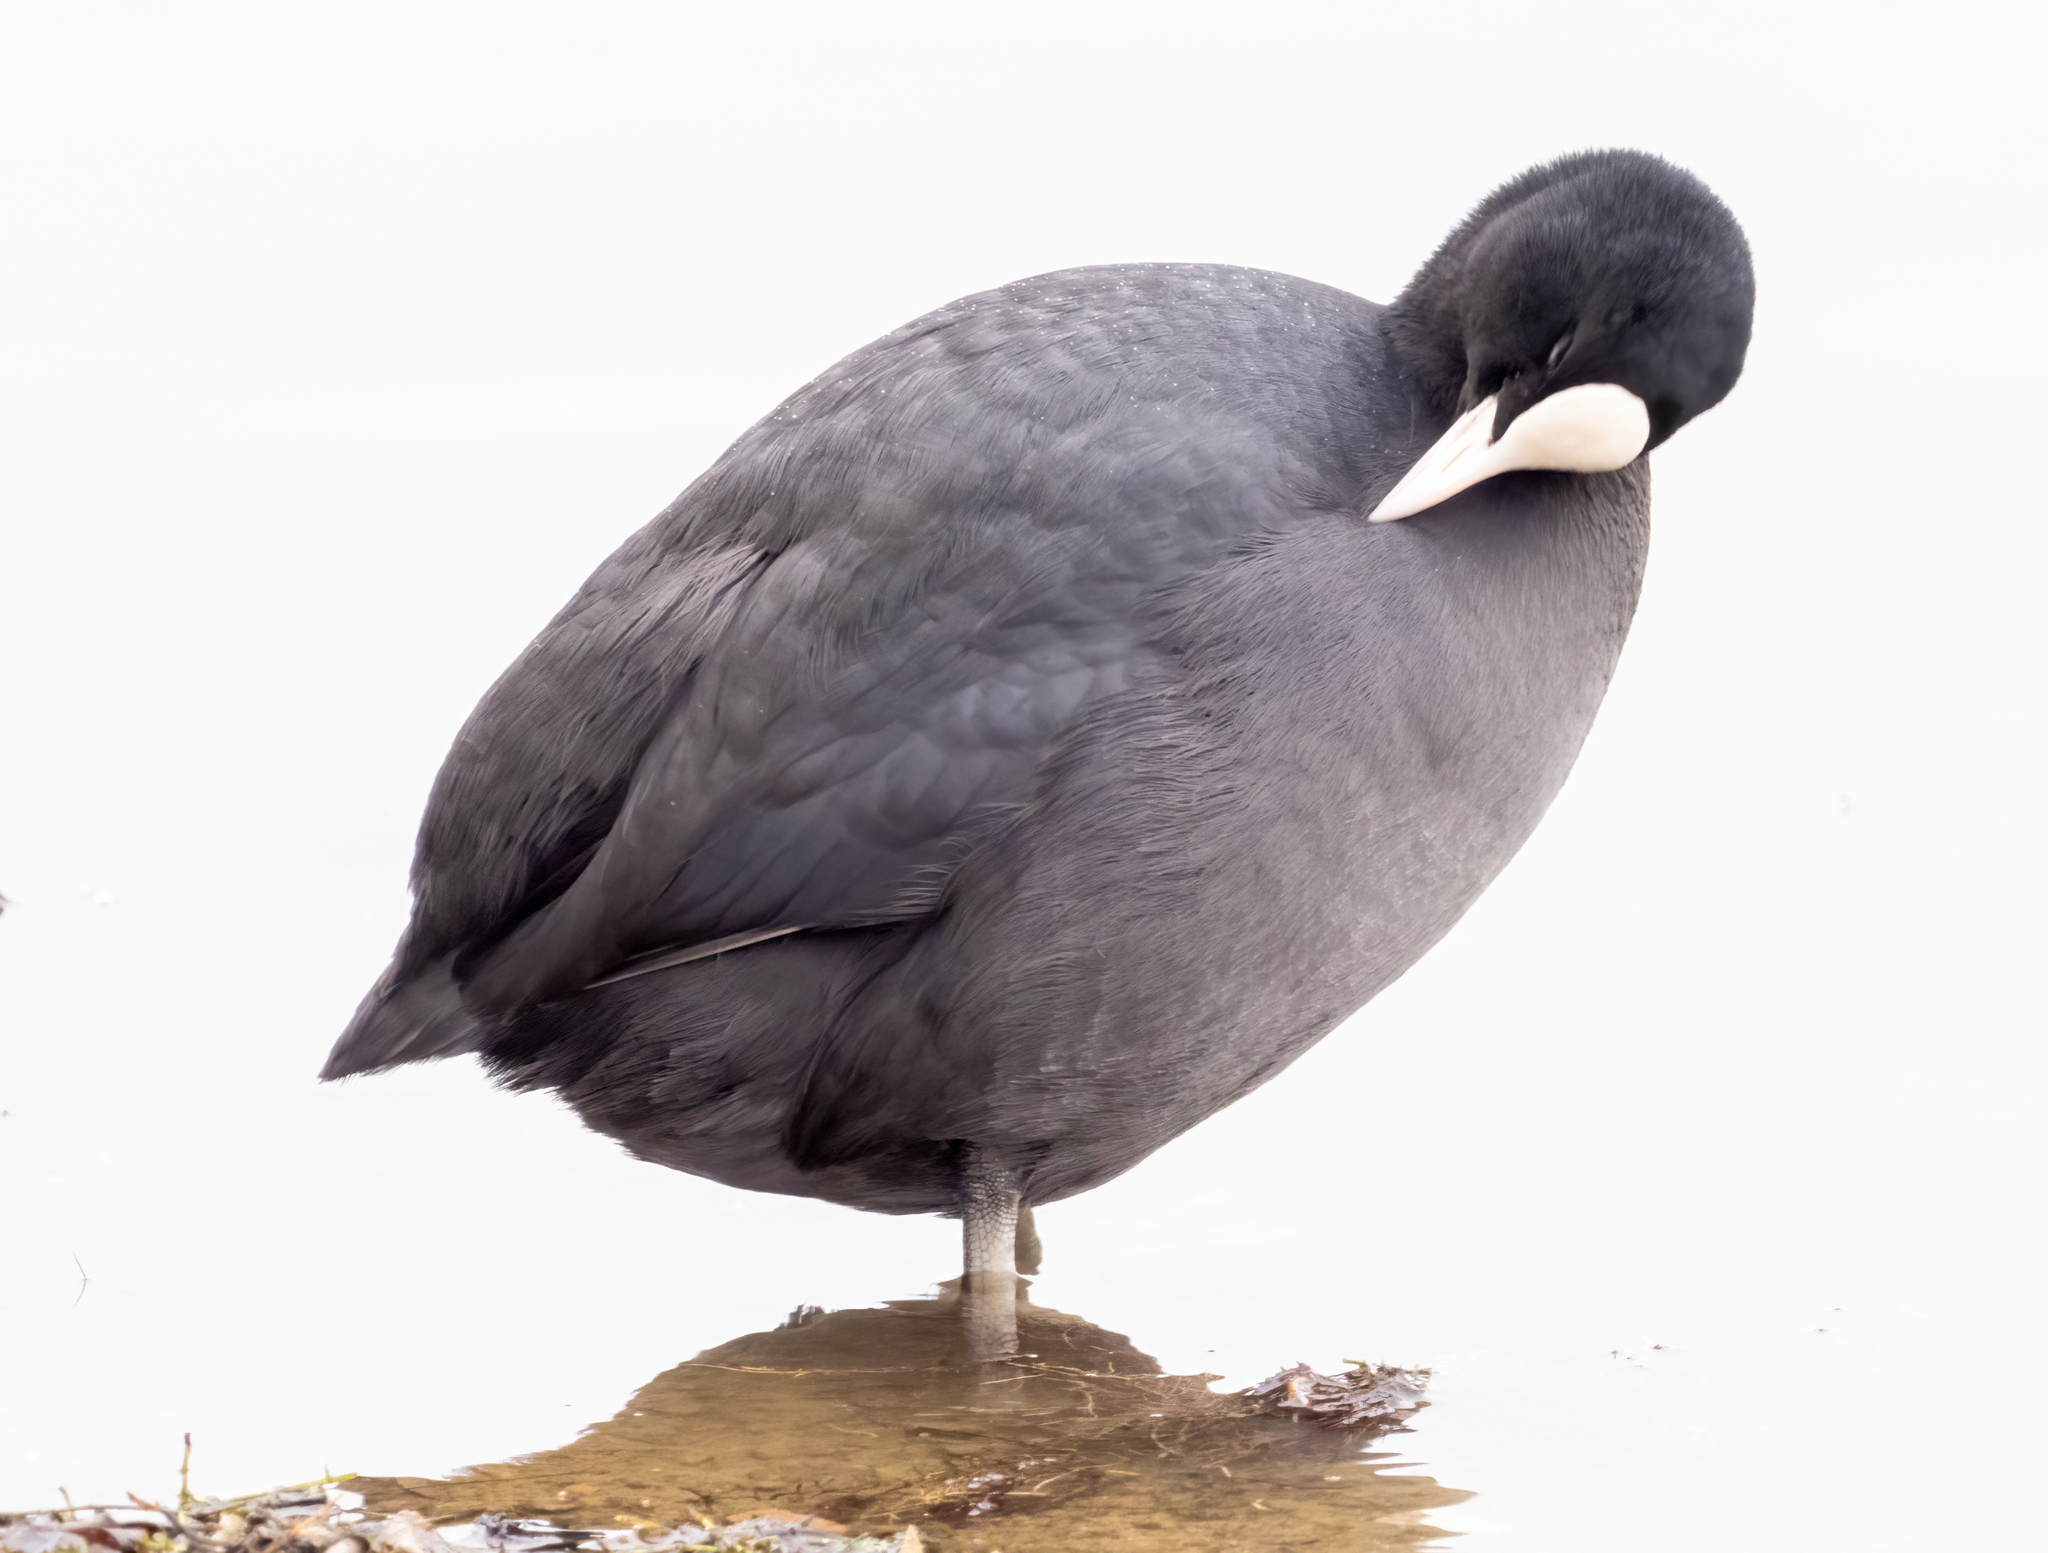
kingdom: Animalia
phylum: Chordata
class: Aves
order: Gruiformes
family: Rallidae
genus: Fulica
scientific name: Fulica atra
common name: Eurasian coot
